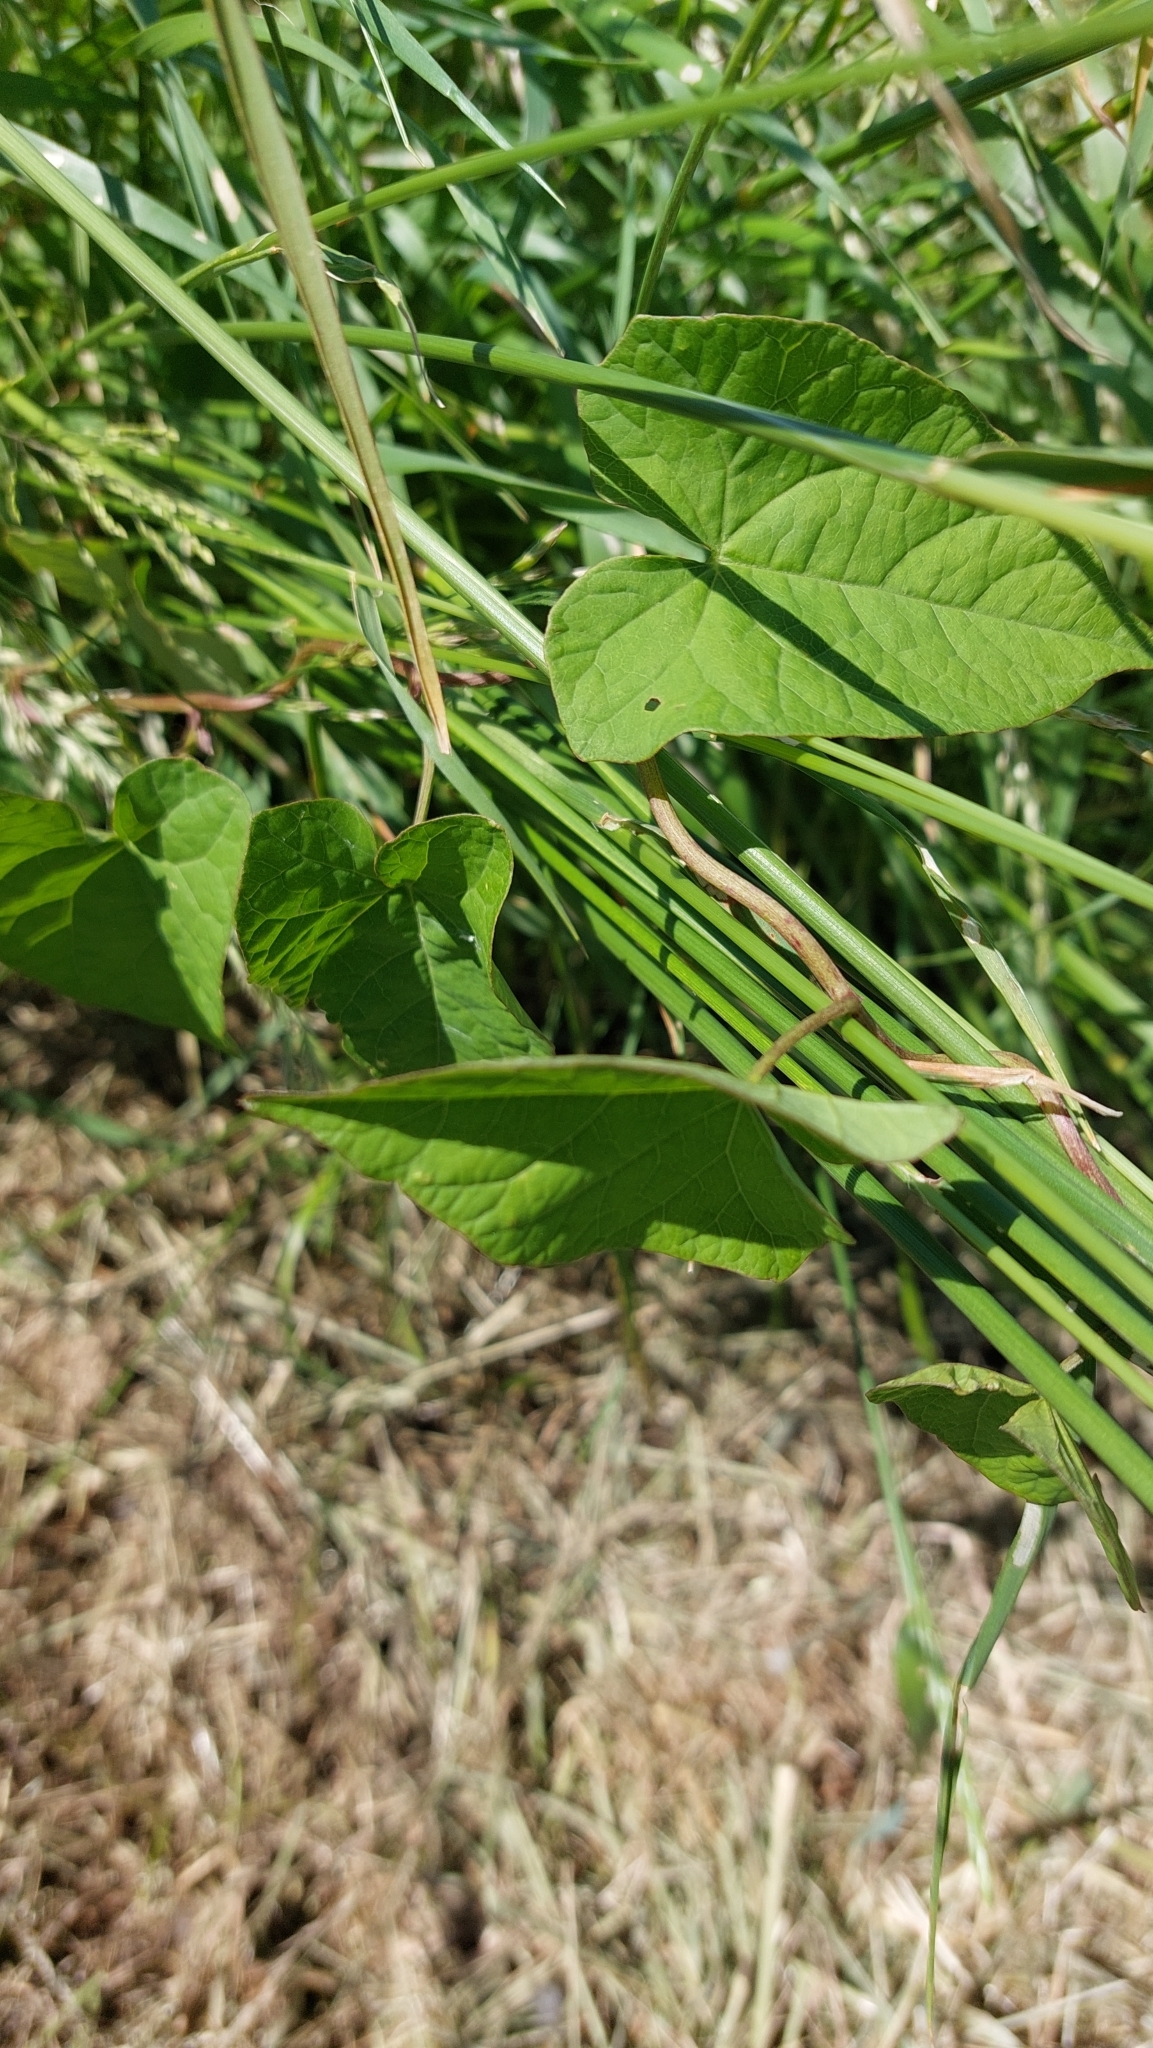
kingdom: Plantae
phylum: Tracheophyta
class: Magnoliopsida
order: Solanales
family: Convolvulaceae
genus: Calystegia
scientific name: Calystegia sepium
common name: Hedge bindweed
